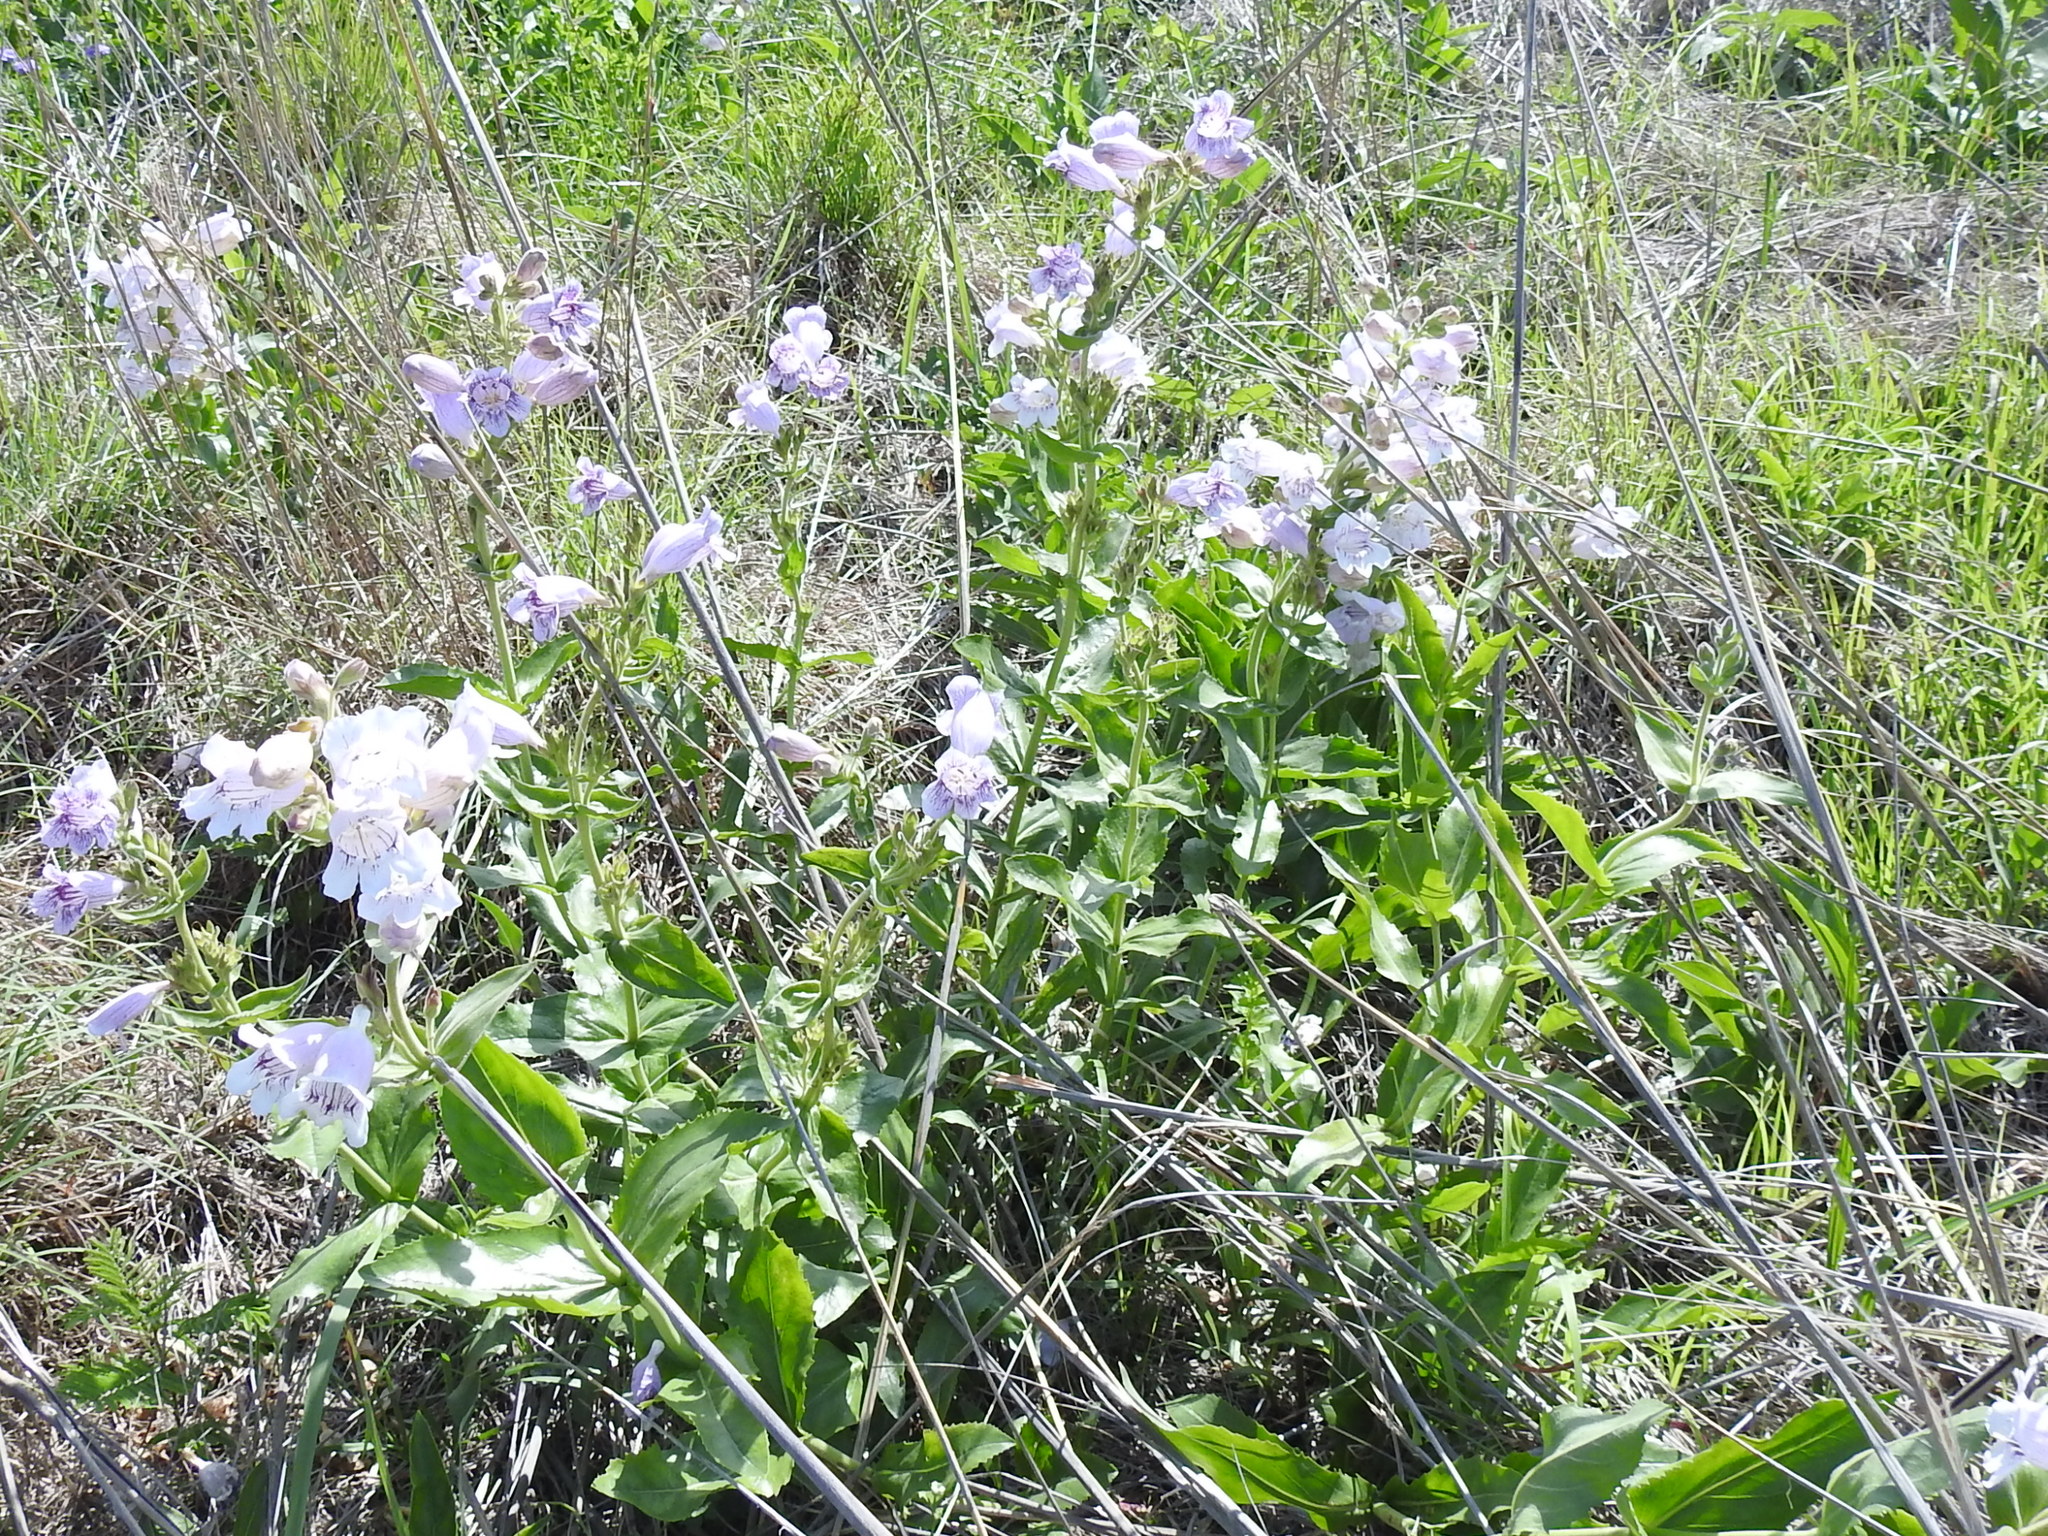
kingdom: Plantae
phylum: Tracheophyta
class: Magnoliopsida
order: Lamiales
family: Plantaginaceae
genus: Penstemon
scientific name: Penstemon cobaea
